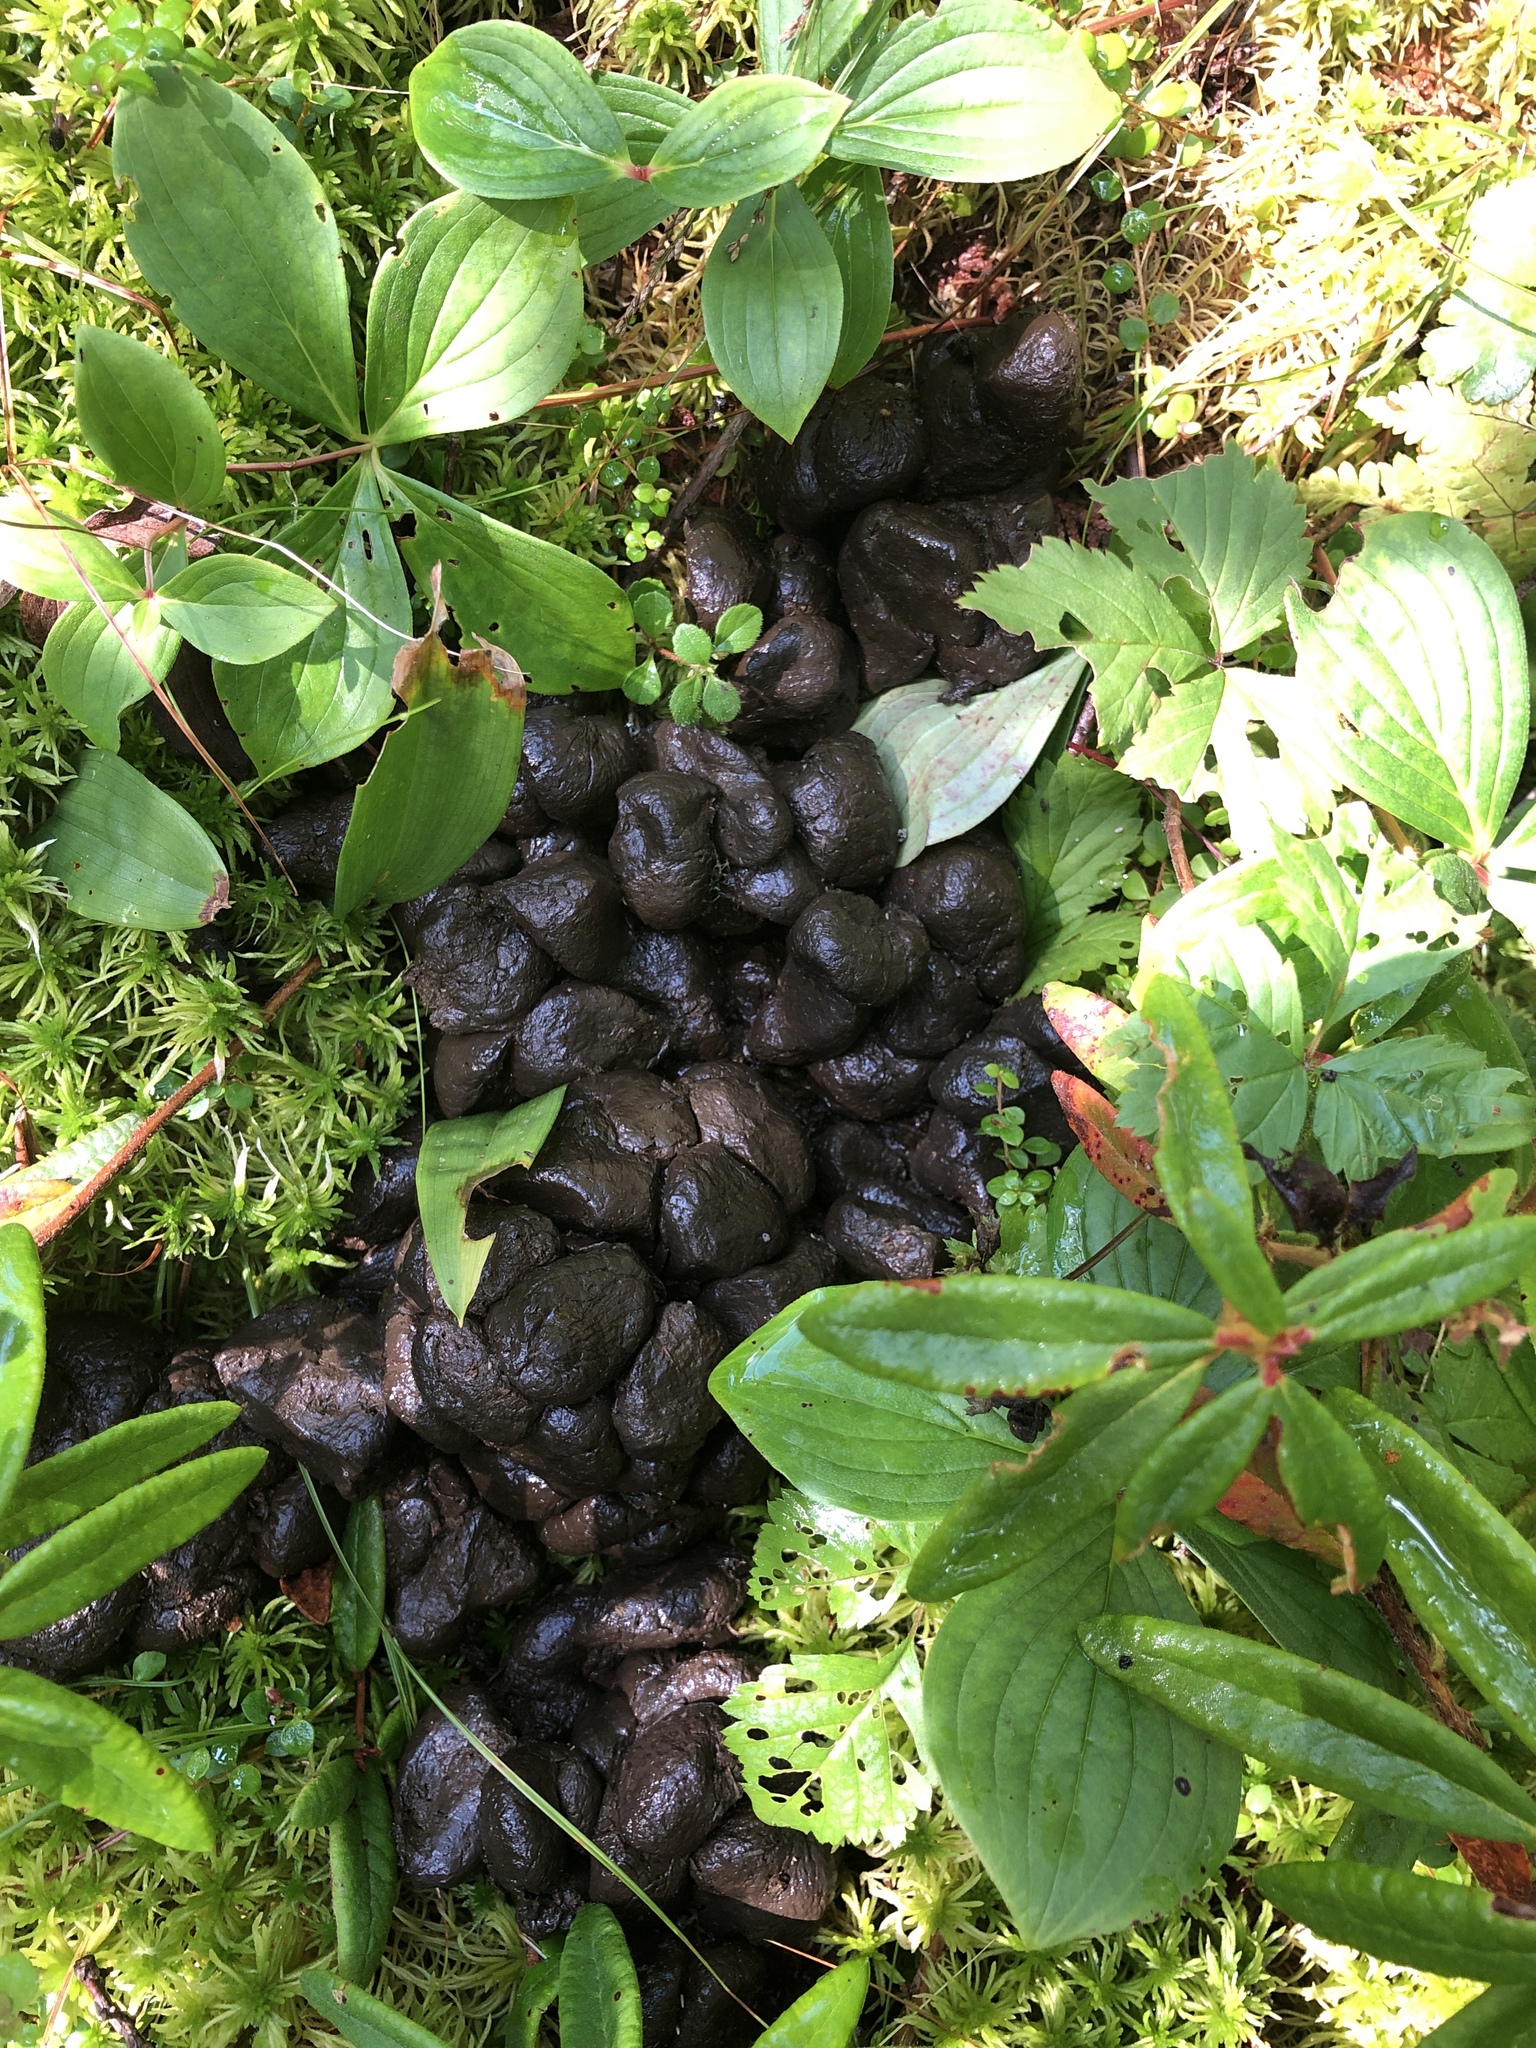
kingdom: Animalia
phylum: Chordata
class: Mammalia
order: Artiodactyla
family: Cervidae
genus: Alces
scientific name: Alces alces
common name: Moose
